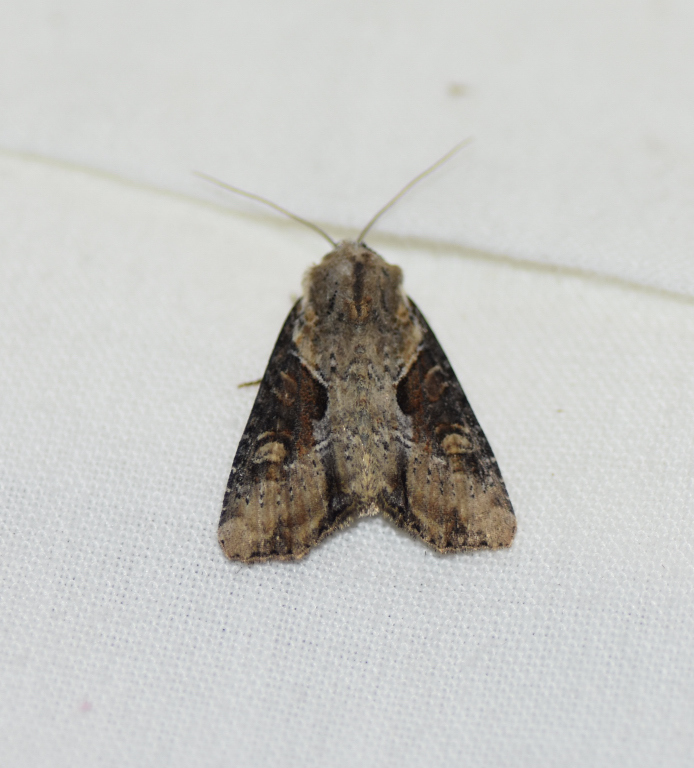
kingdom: Animalia
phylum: Arthropoda
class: Insecta
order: Lepidoptera
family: Noctuidae
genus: Lateroligia
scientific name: Lateroligia ophiogramma
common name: Double lobed
